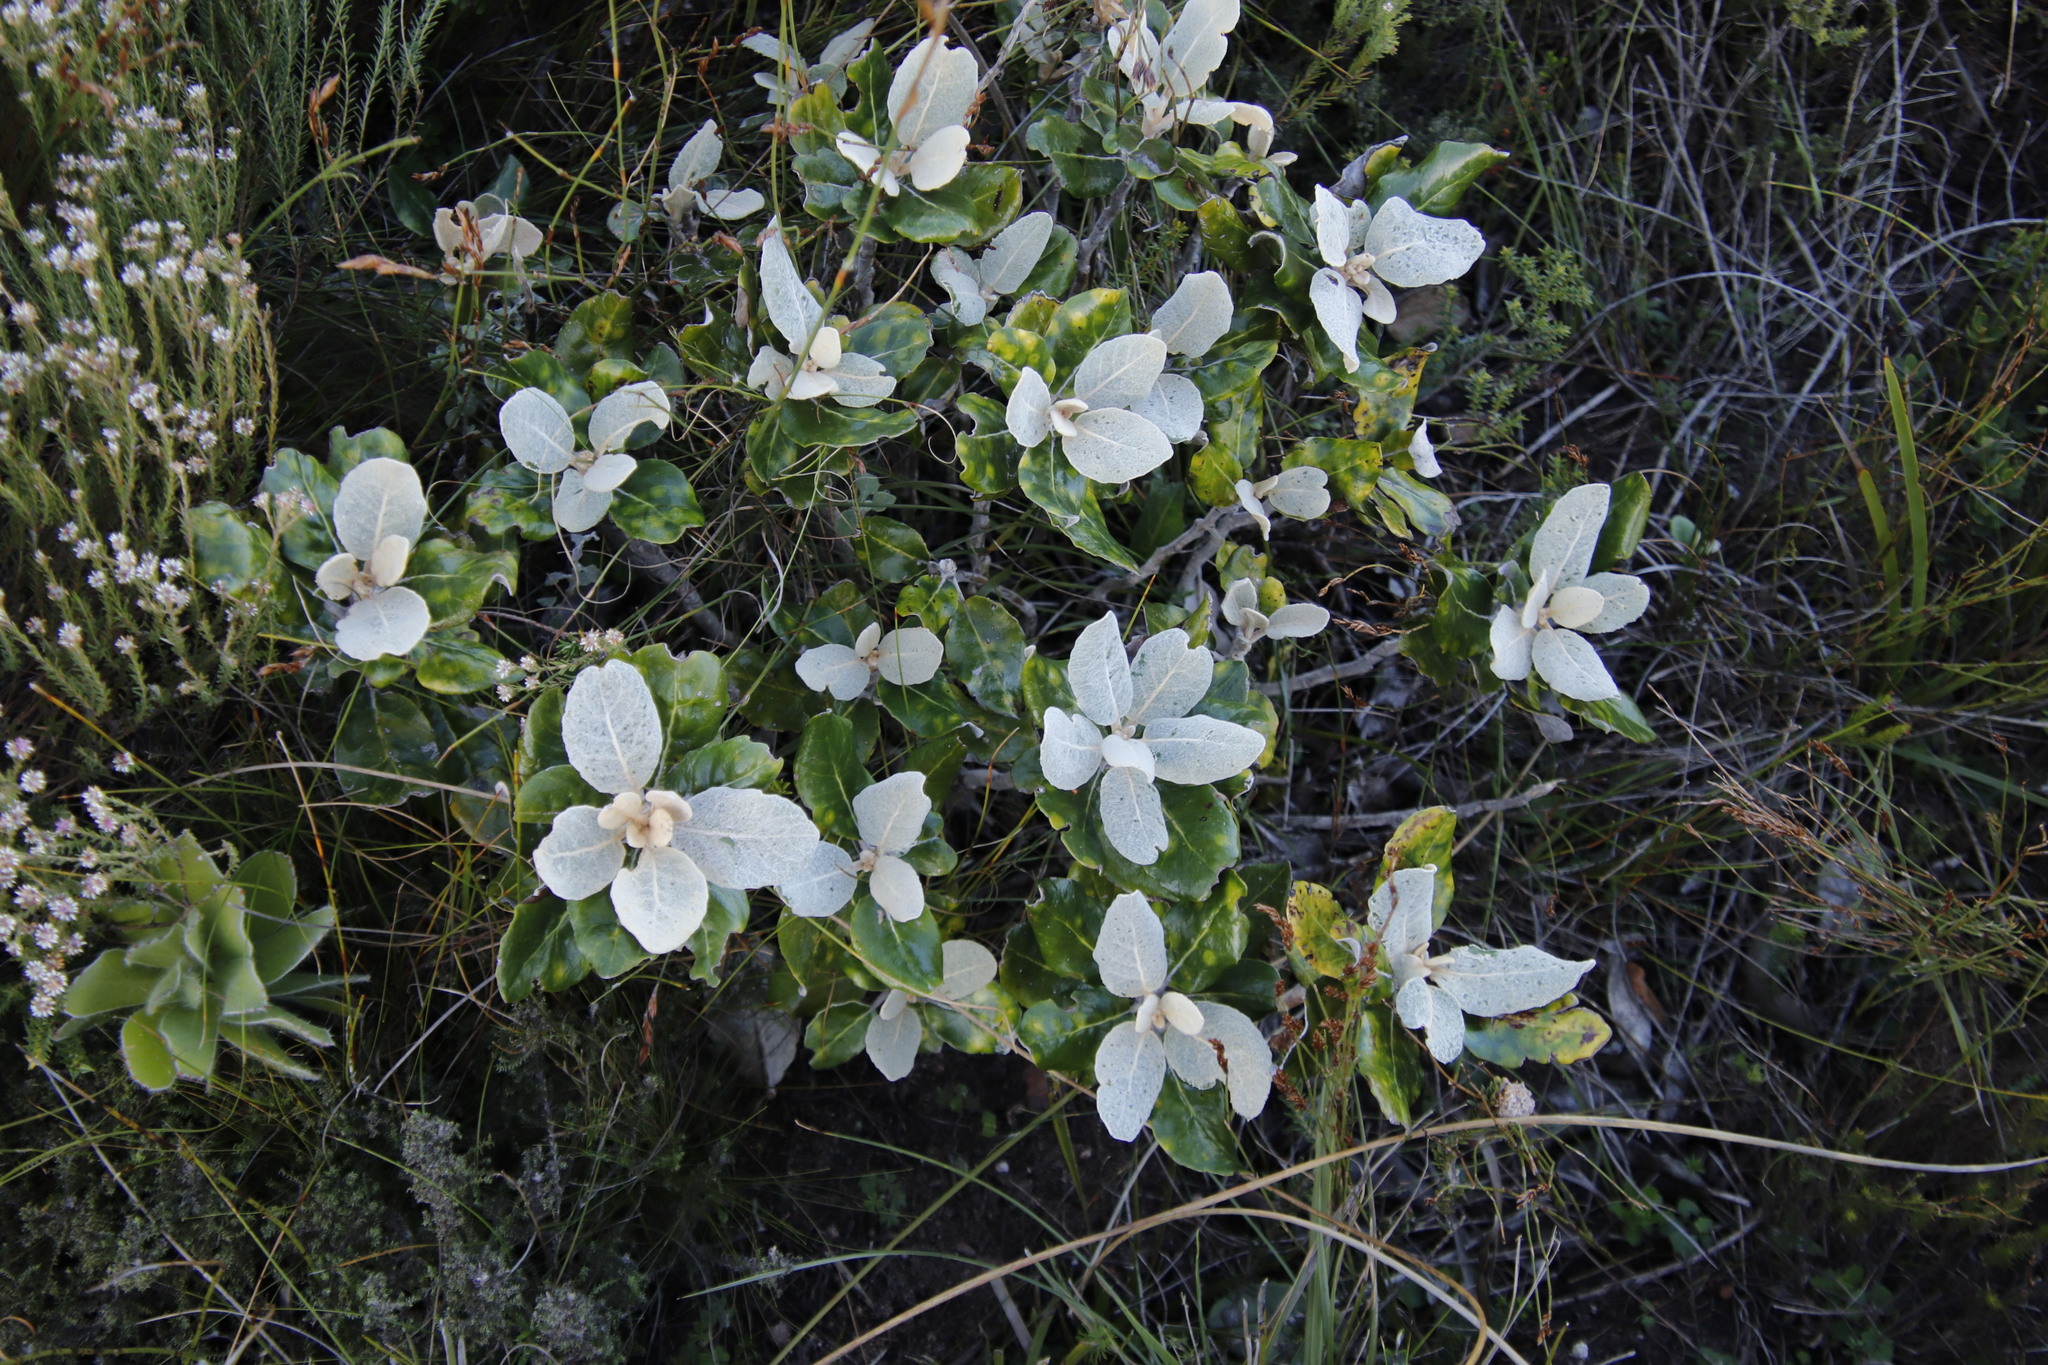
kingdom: Plantae
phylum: Tracheophyta
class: Magnoliopsida
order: Asterales
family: Asteraceae
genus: Capelio
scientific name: Capelio tabularis
